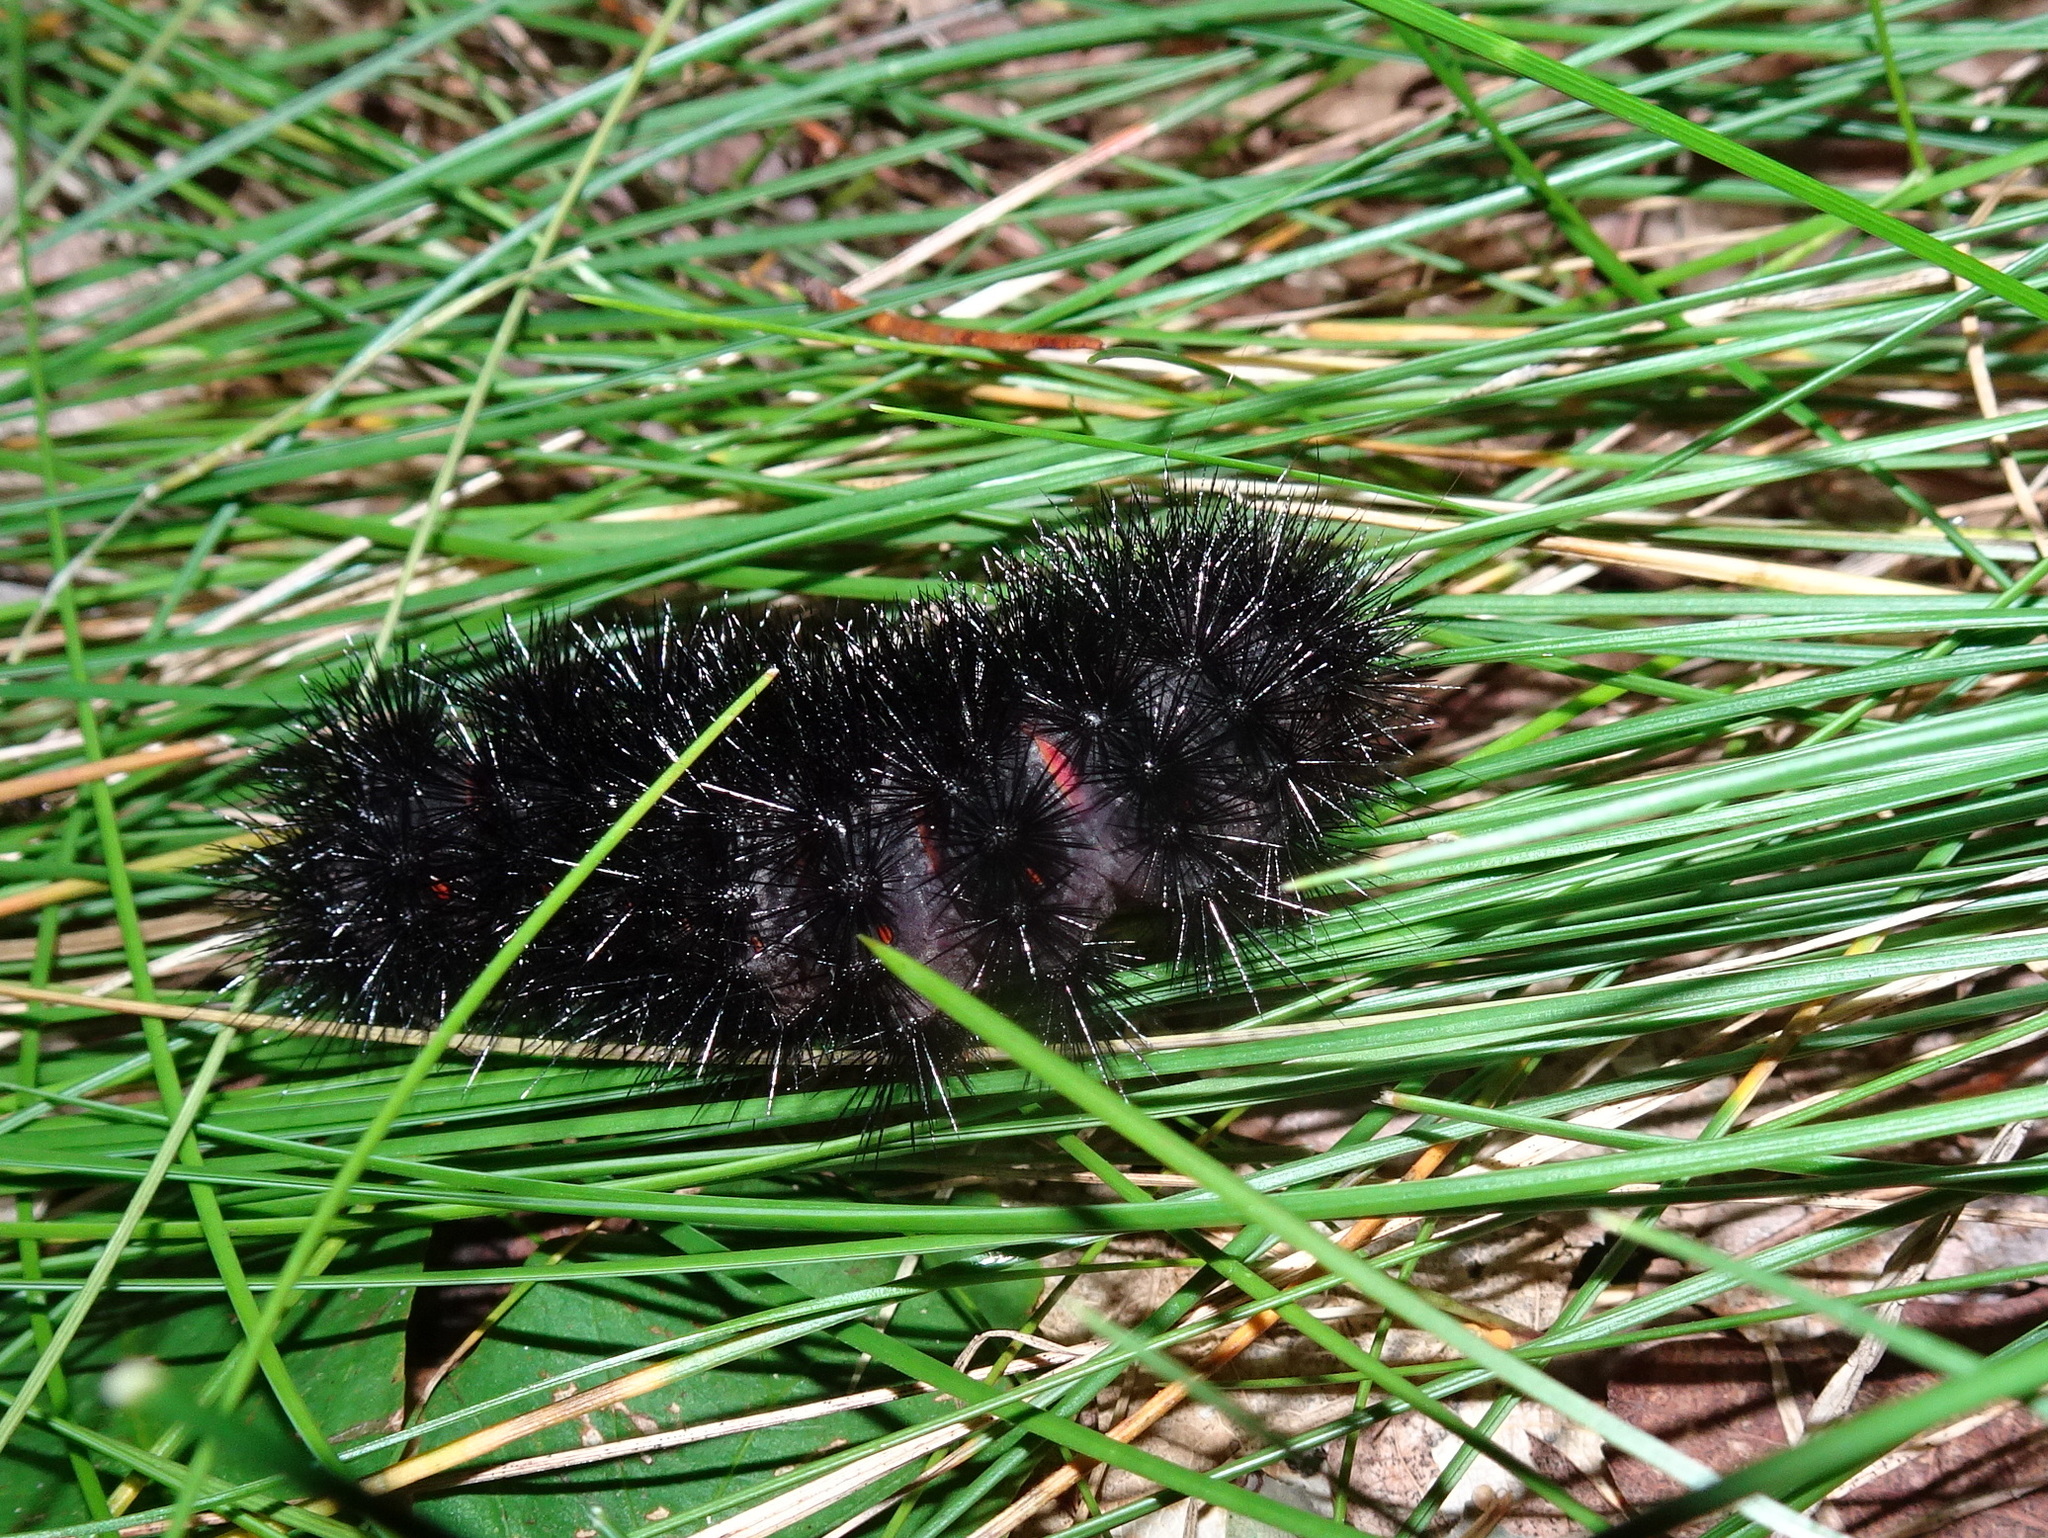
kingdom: Animalia
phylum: Arthropoda
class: Insecta
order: Lepidoptera
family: Erebidae
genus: Hypercompe
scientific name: Hypercompe scribonia
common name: Giant leopard moth
